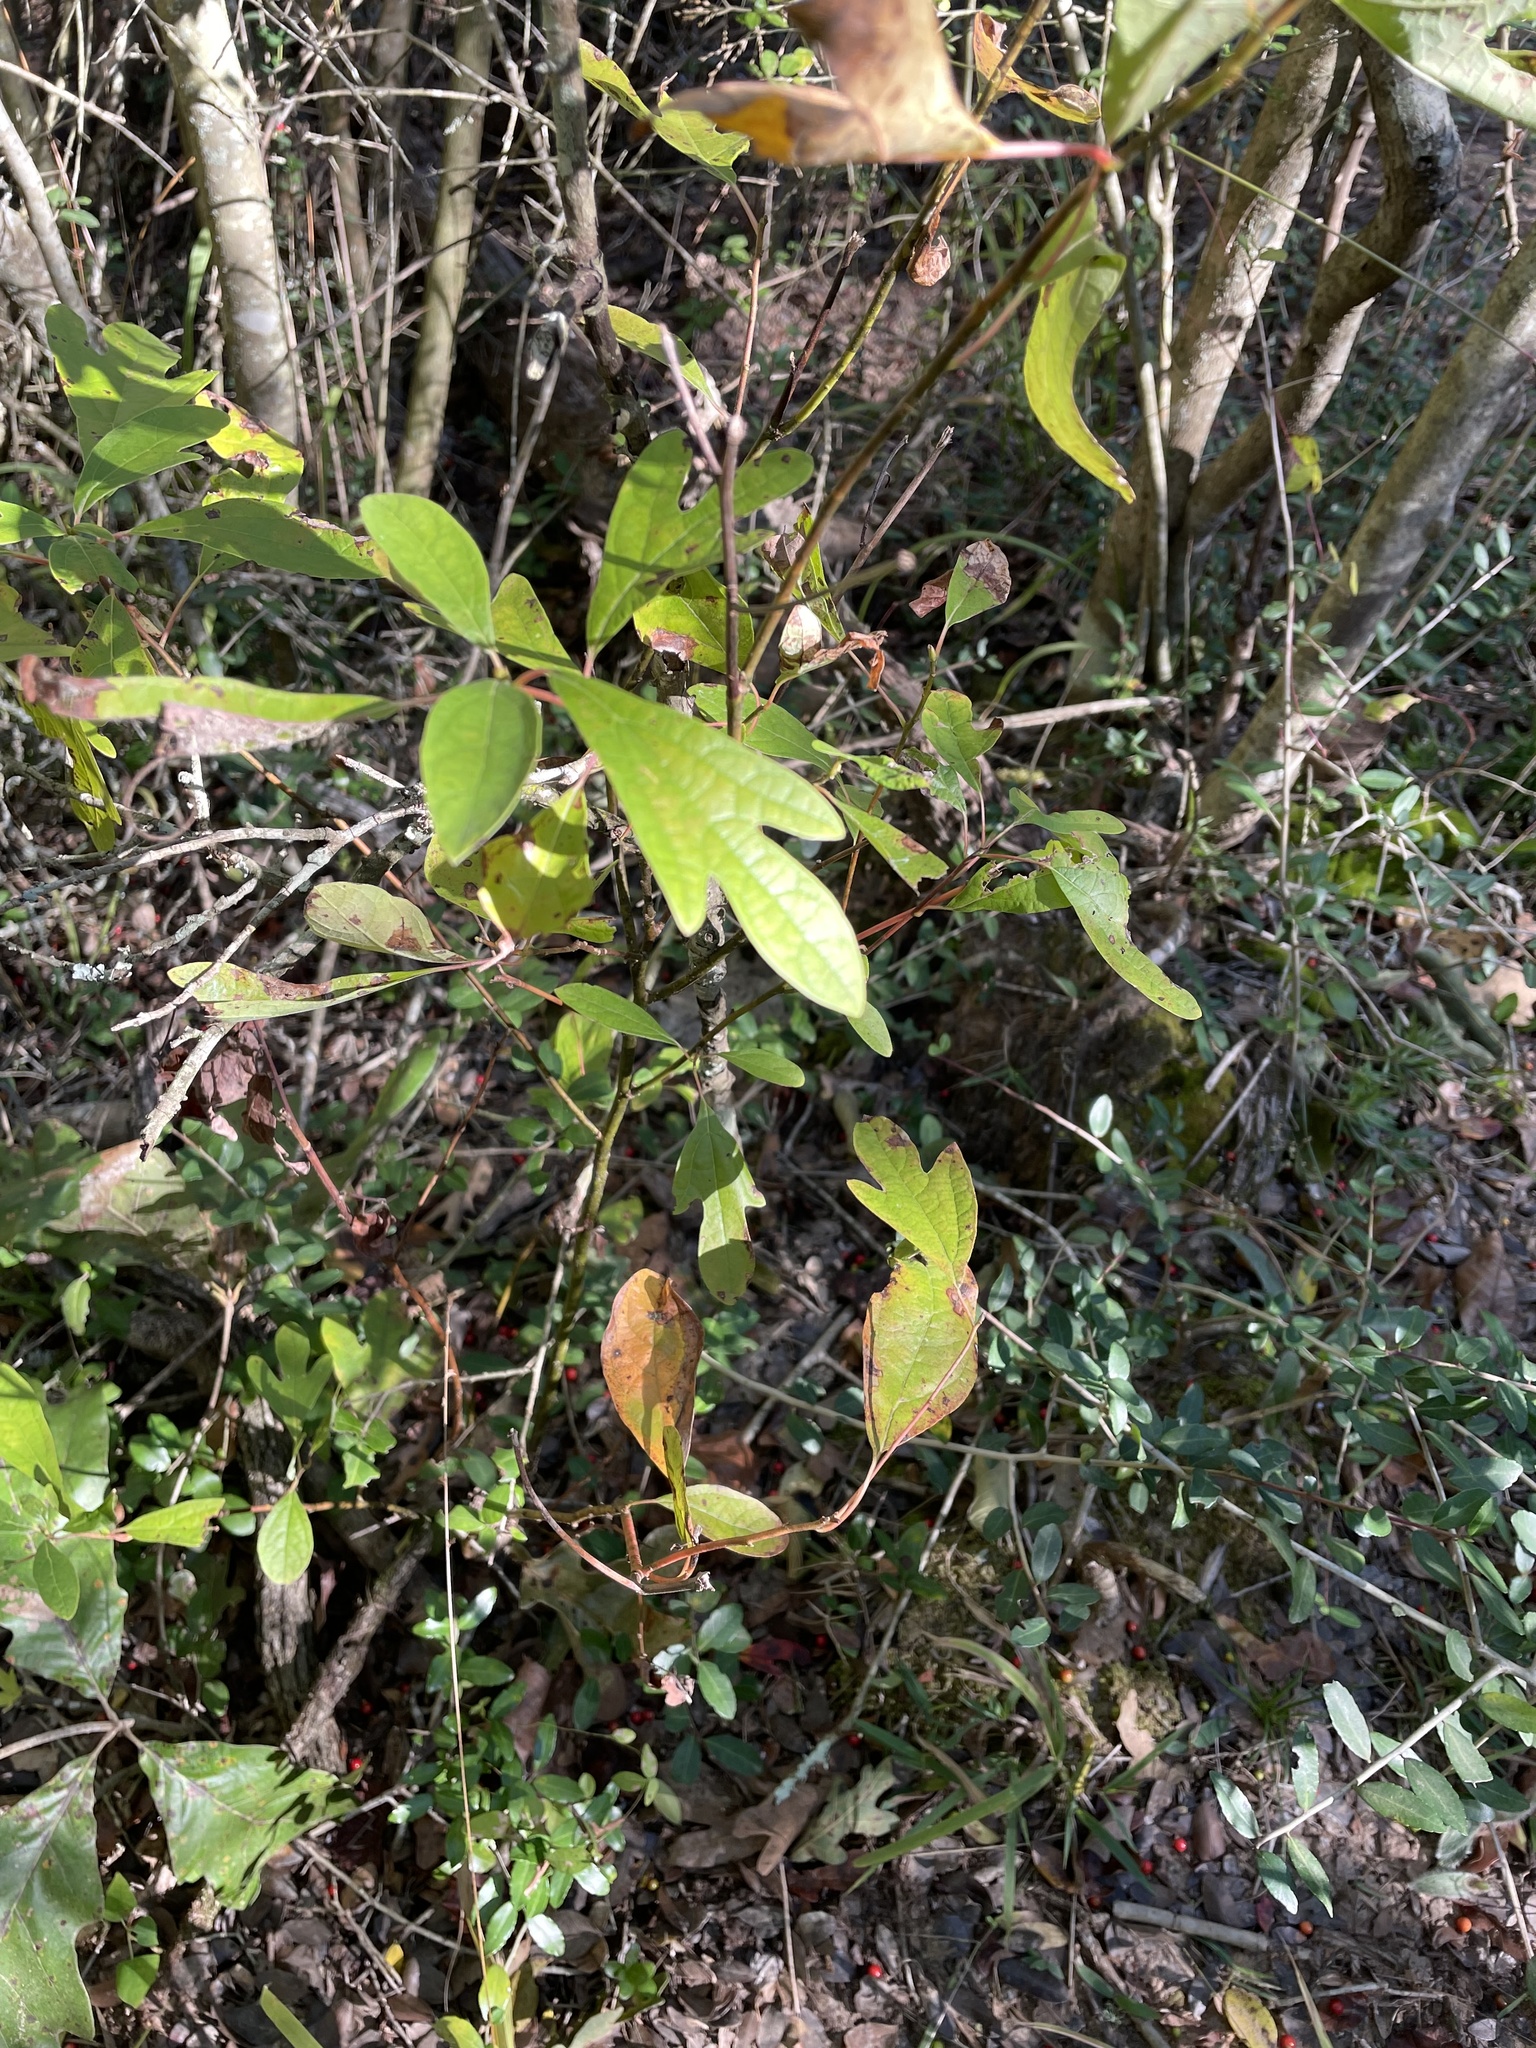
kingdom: Plantae
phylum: Tracheophyta
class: Magnoliopsida
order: Laurales
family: Lauraceae
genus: Sassafras
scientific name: Sassafras albidum
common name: Sassafras
